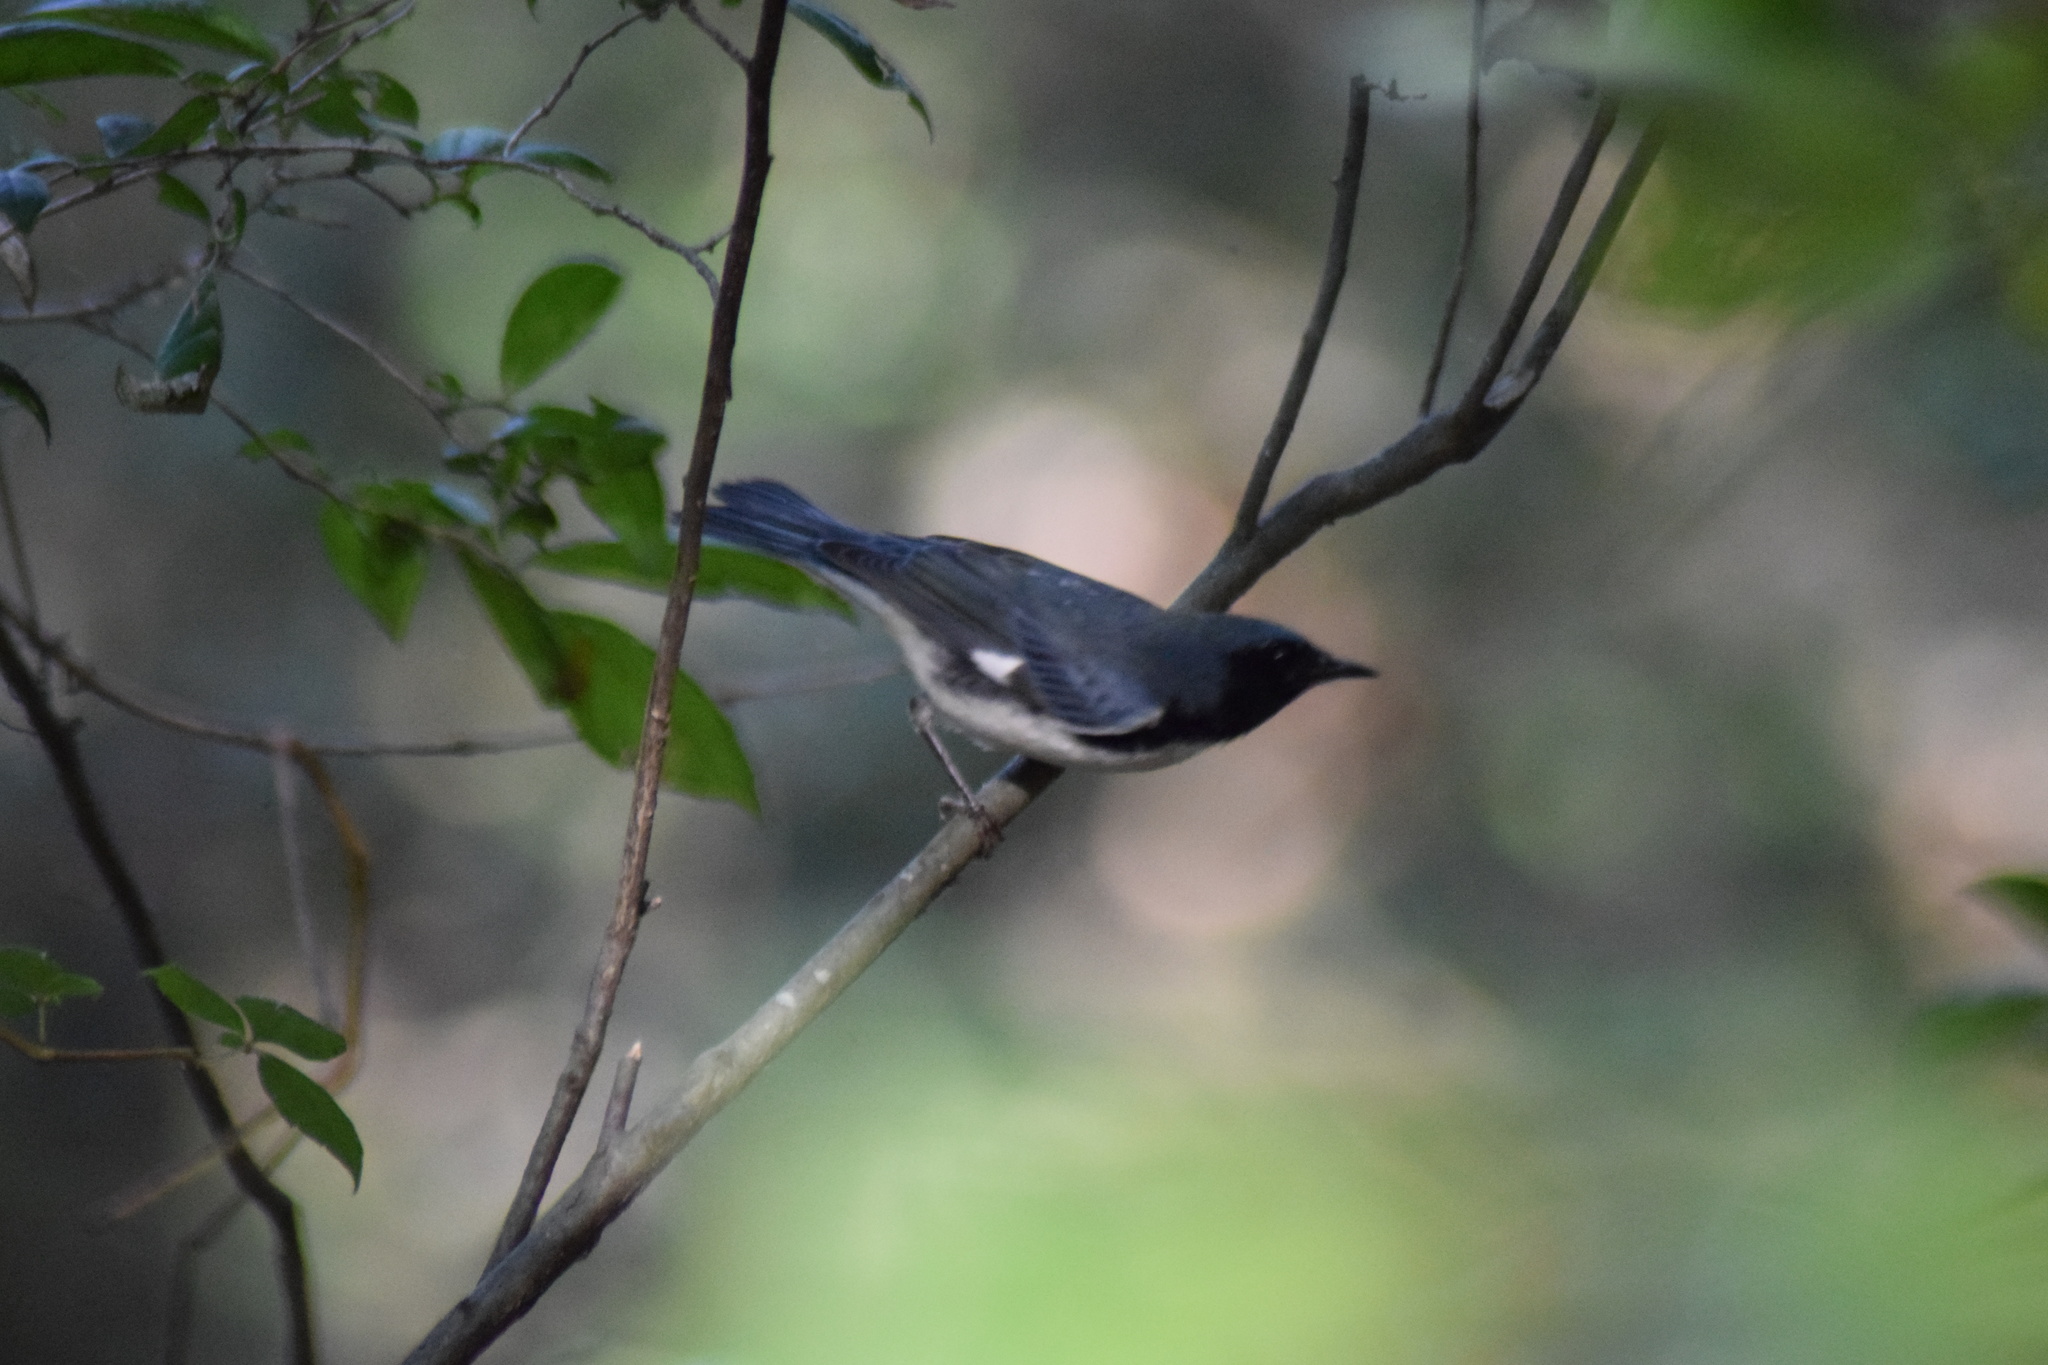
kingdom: Animalia
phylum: Chordata
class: Aves
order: Passeriformes
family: Parulidae
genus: Setophaga
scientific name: Setophaga caerulescens
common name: Black-throated blue warbler
